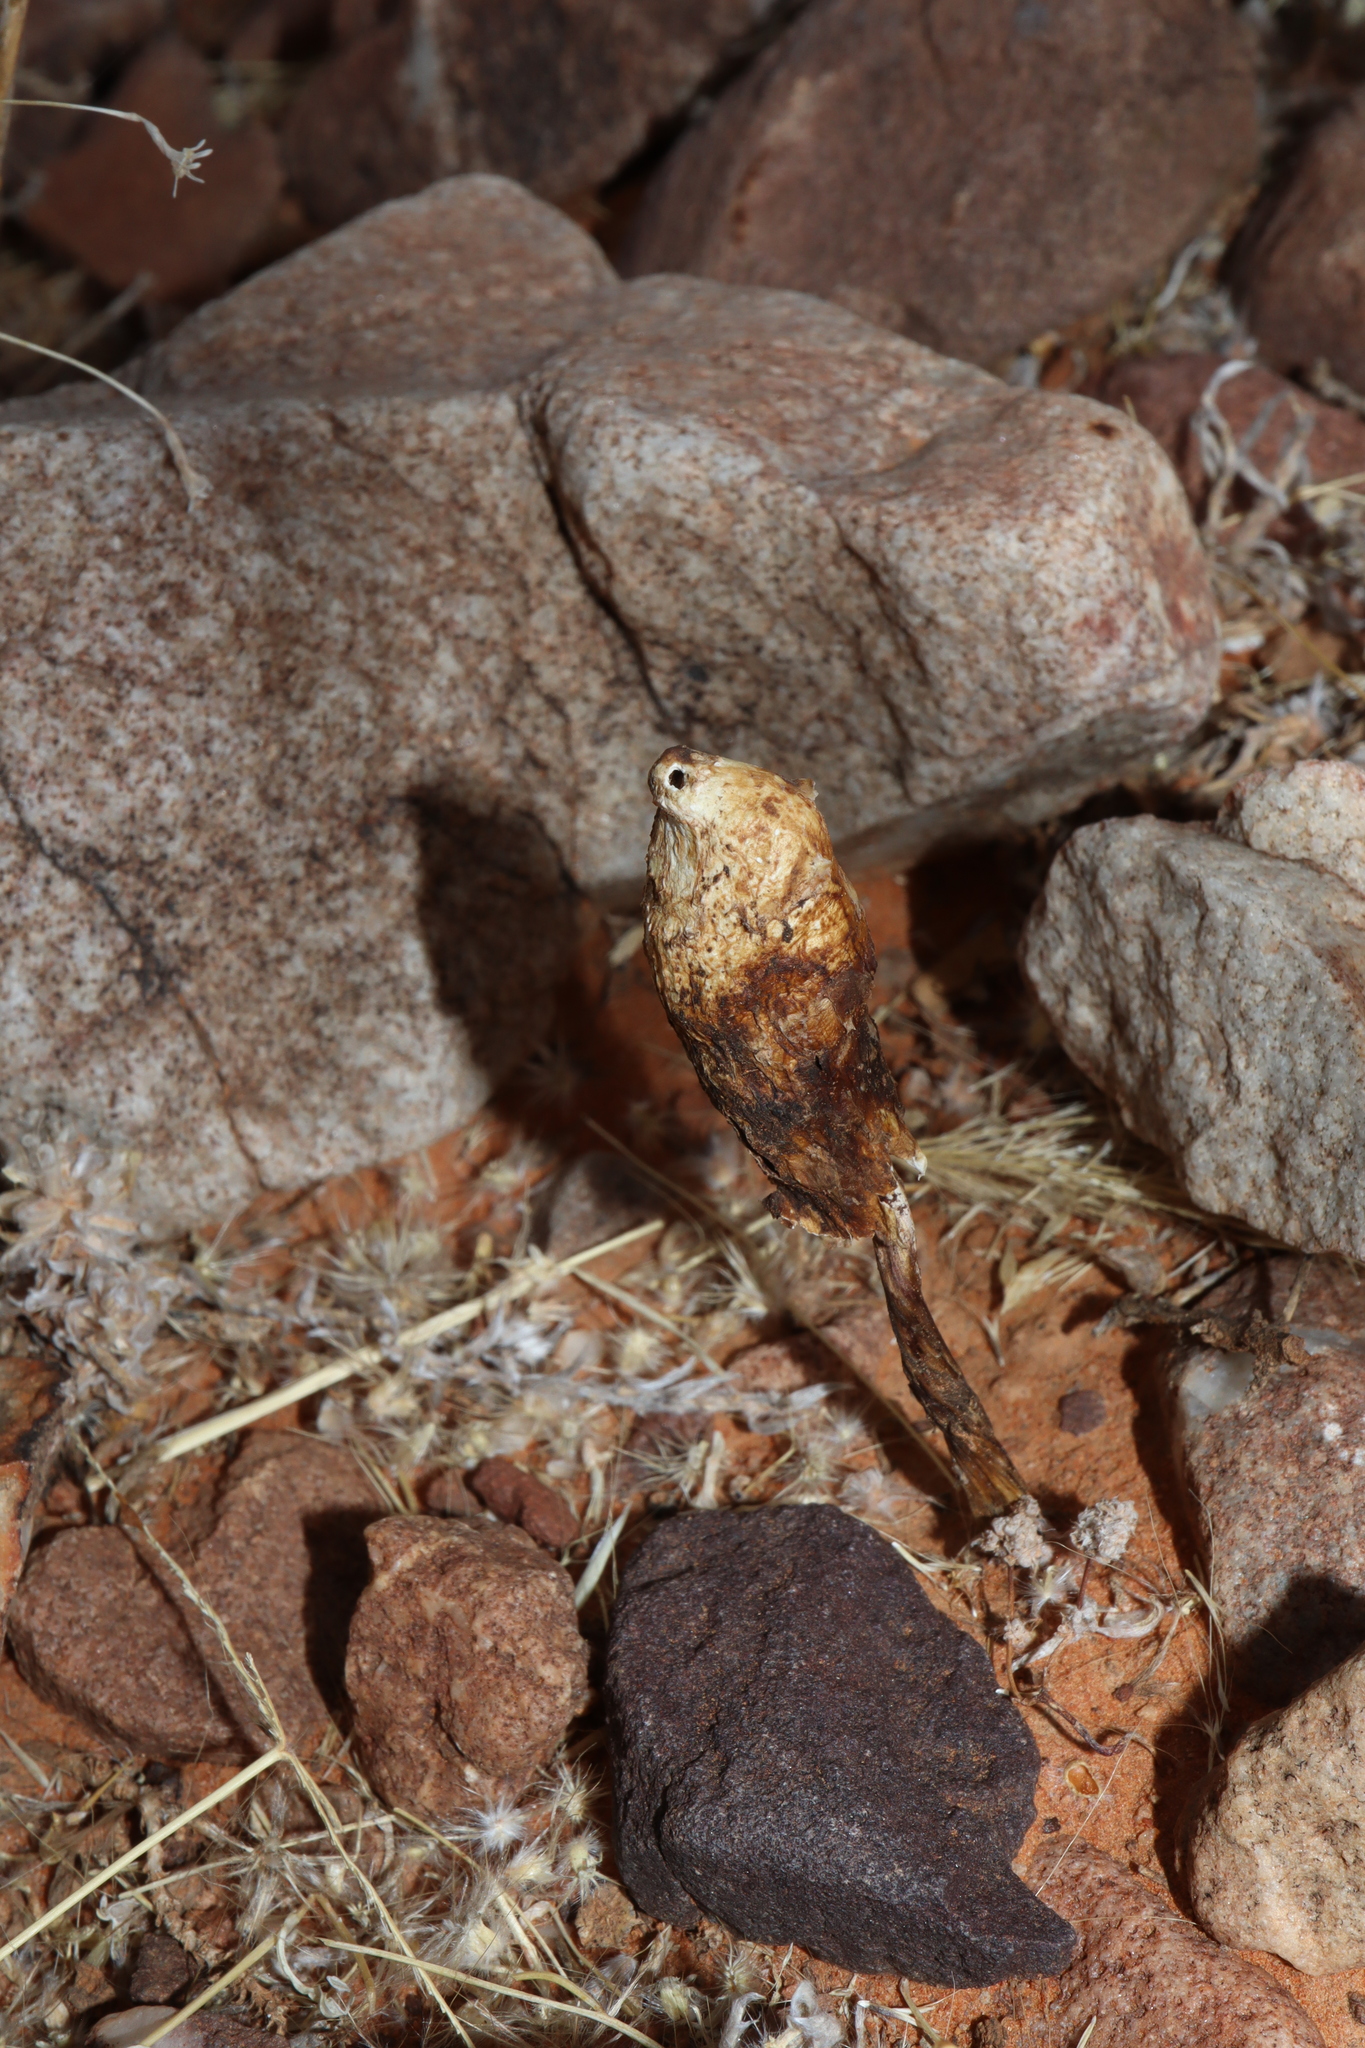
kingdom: Fungi
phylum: Basidiomycota
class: Agaricomycetes
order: Agaricales
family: Agaricaceae
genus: Podaxis
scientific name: Podaxis pistillaris
